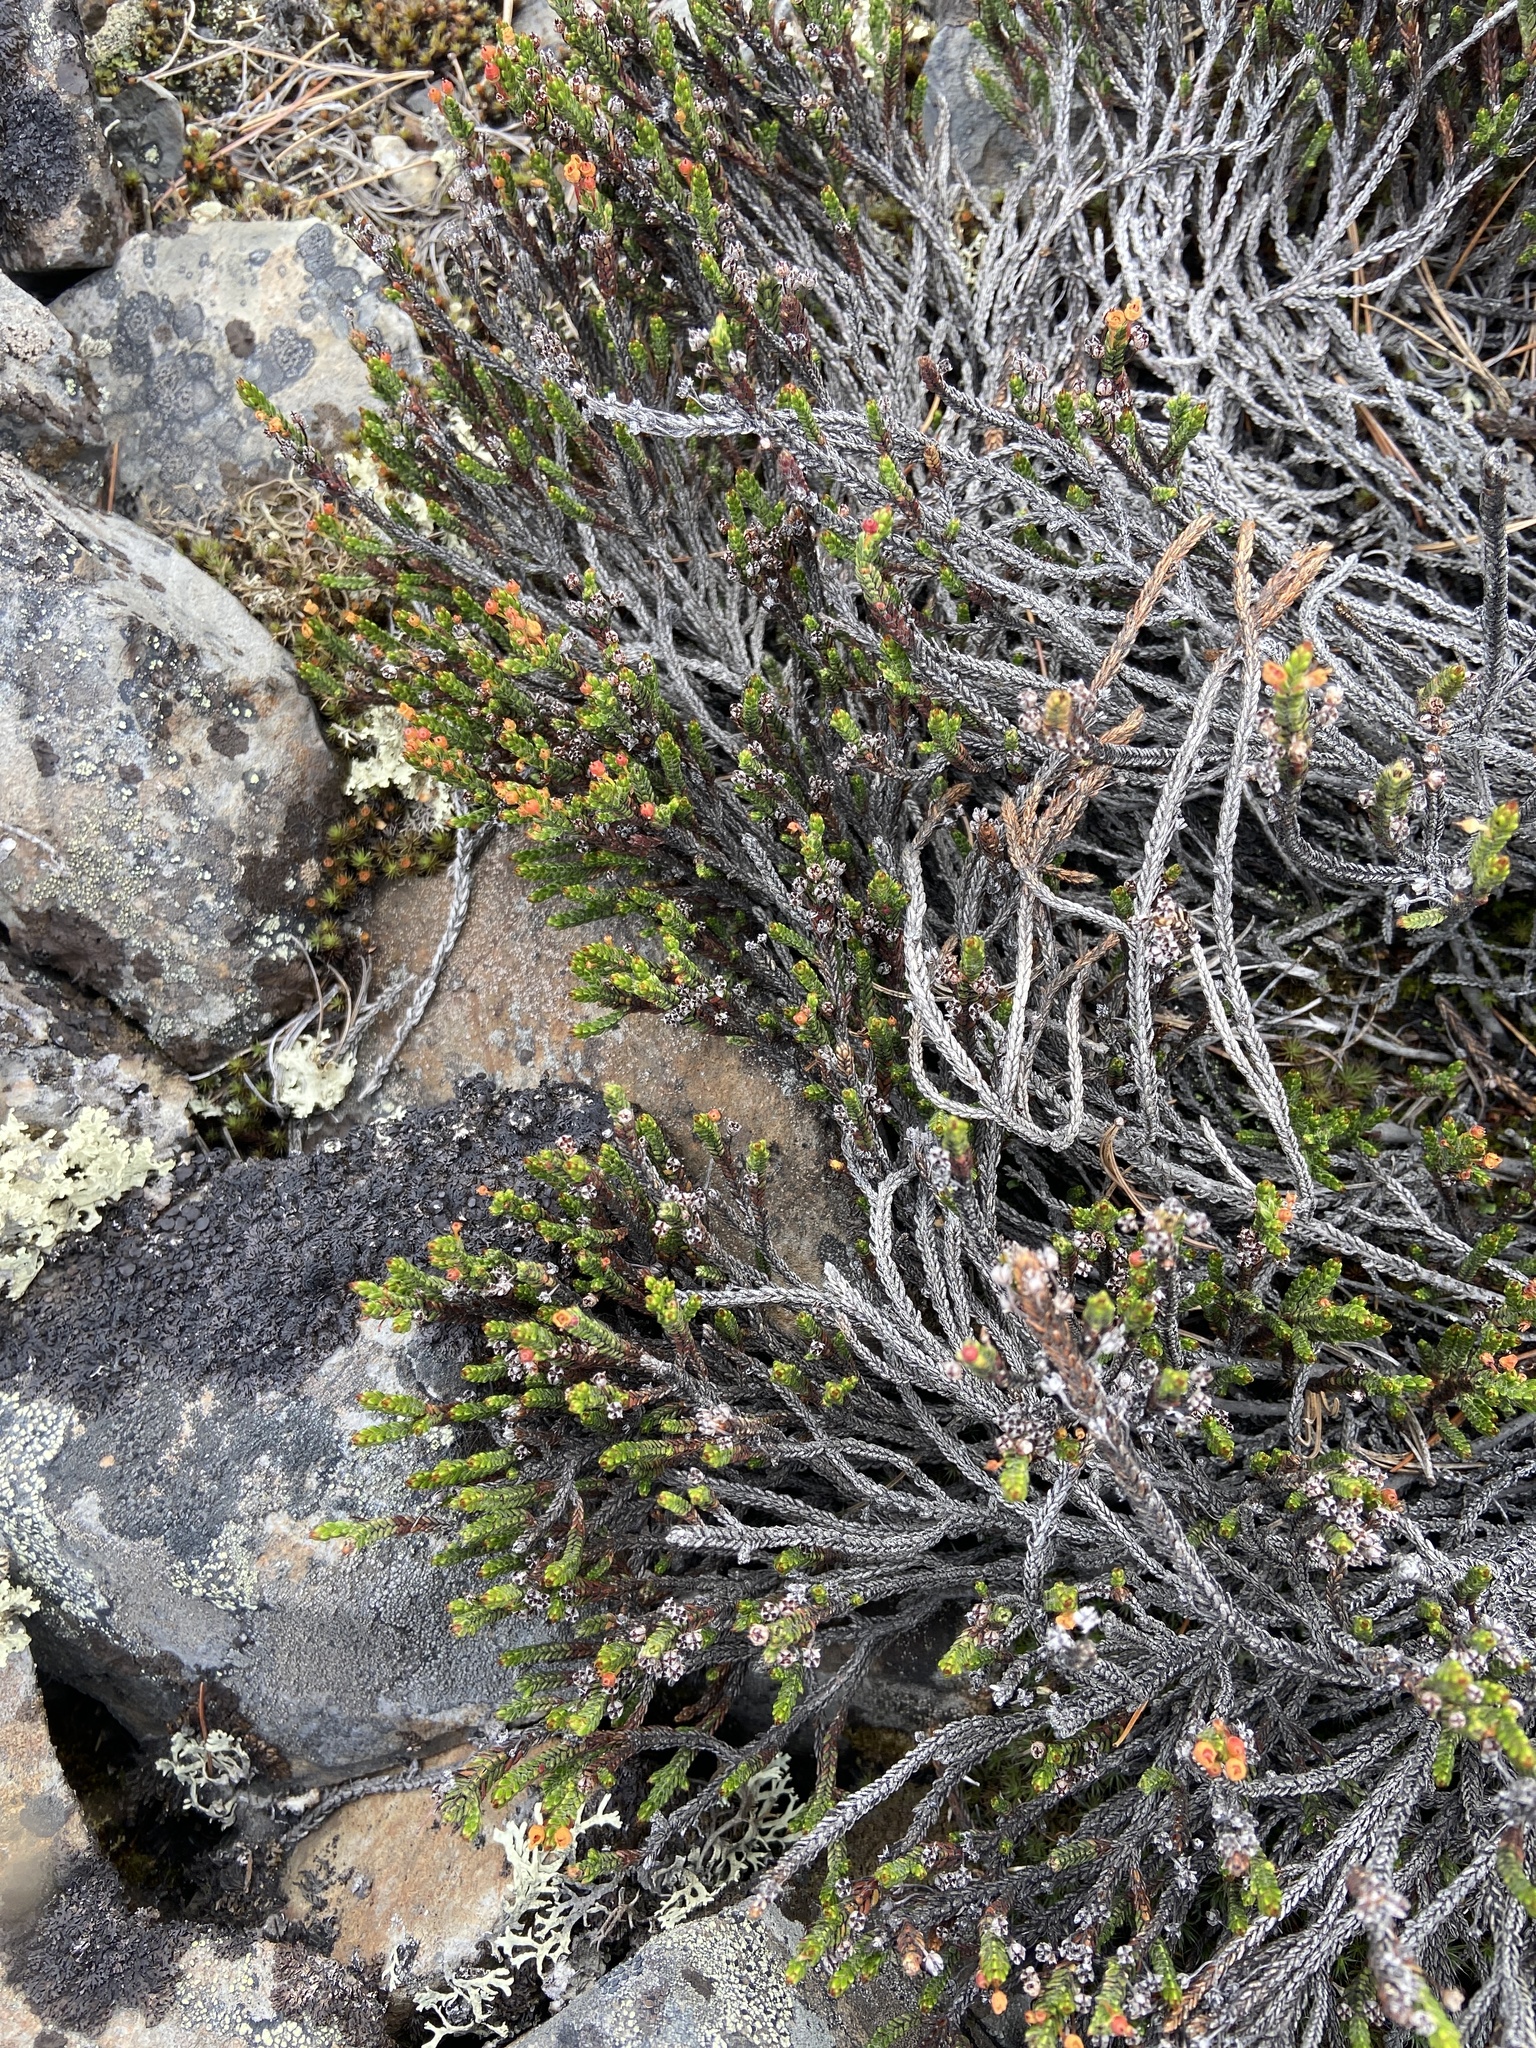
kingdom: Plantae
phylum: Tracheophyta
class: Magnoliopsida
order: Ericales
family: Ericaceae
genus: Cassiope
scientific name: Cassiope ericoides
